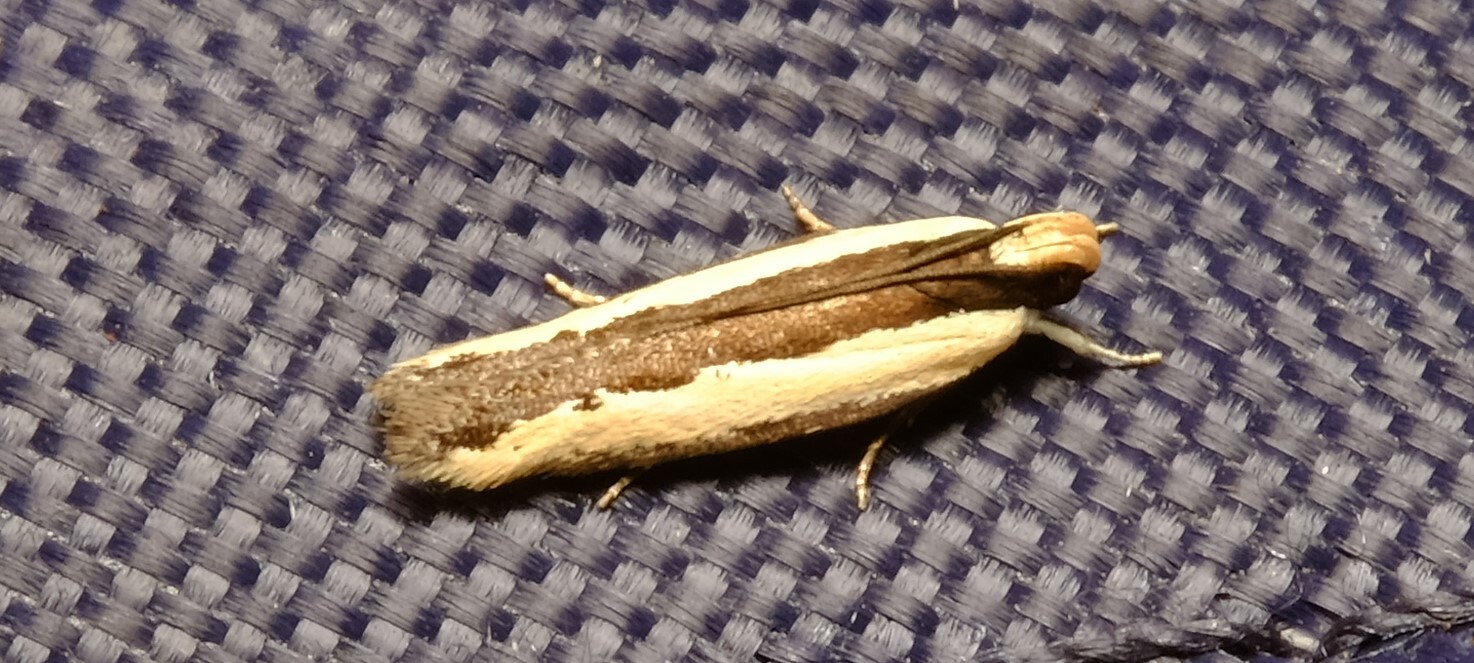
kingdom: Animalia
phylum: Arthropoda
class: Insecta
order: Lepidoptera
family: Gelechiidae
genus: Ardozyga
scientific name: Ardozyga stratifera
